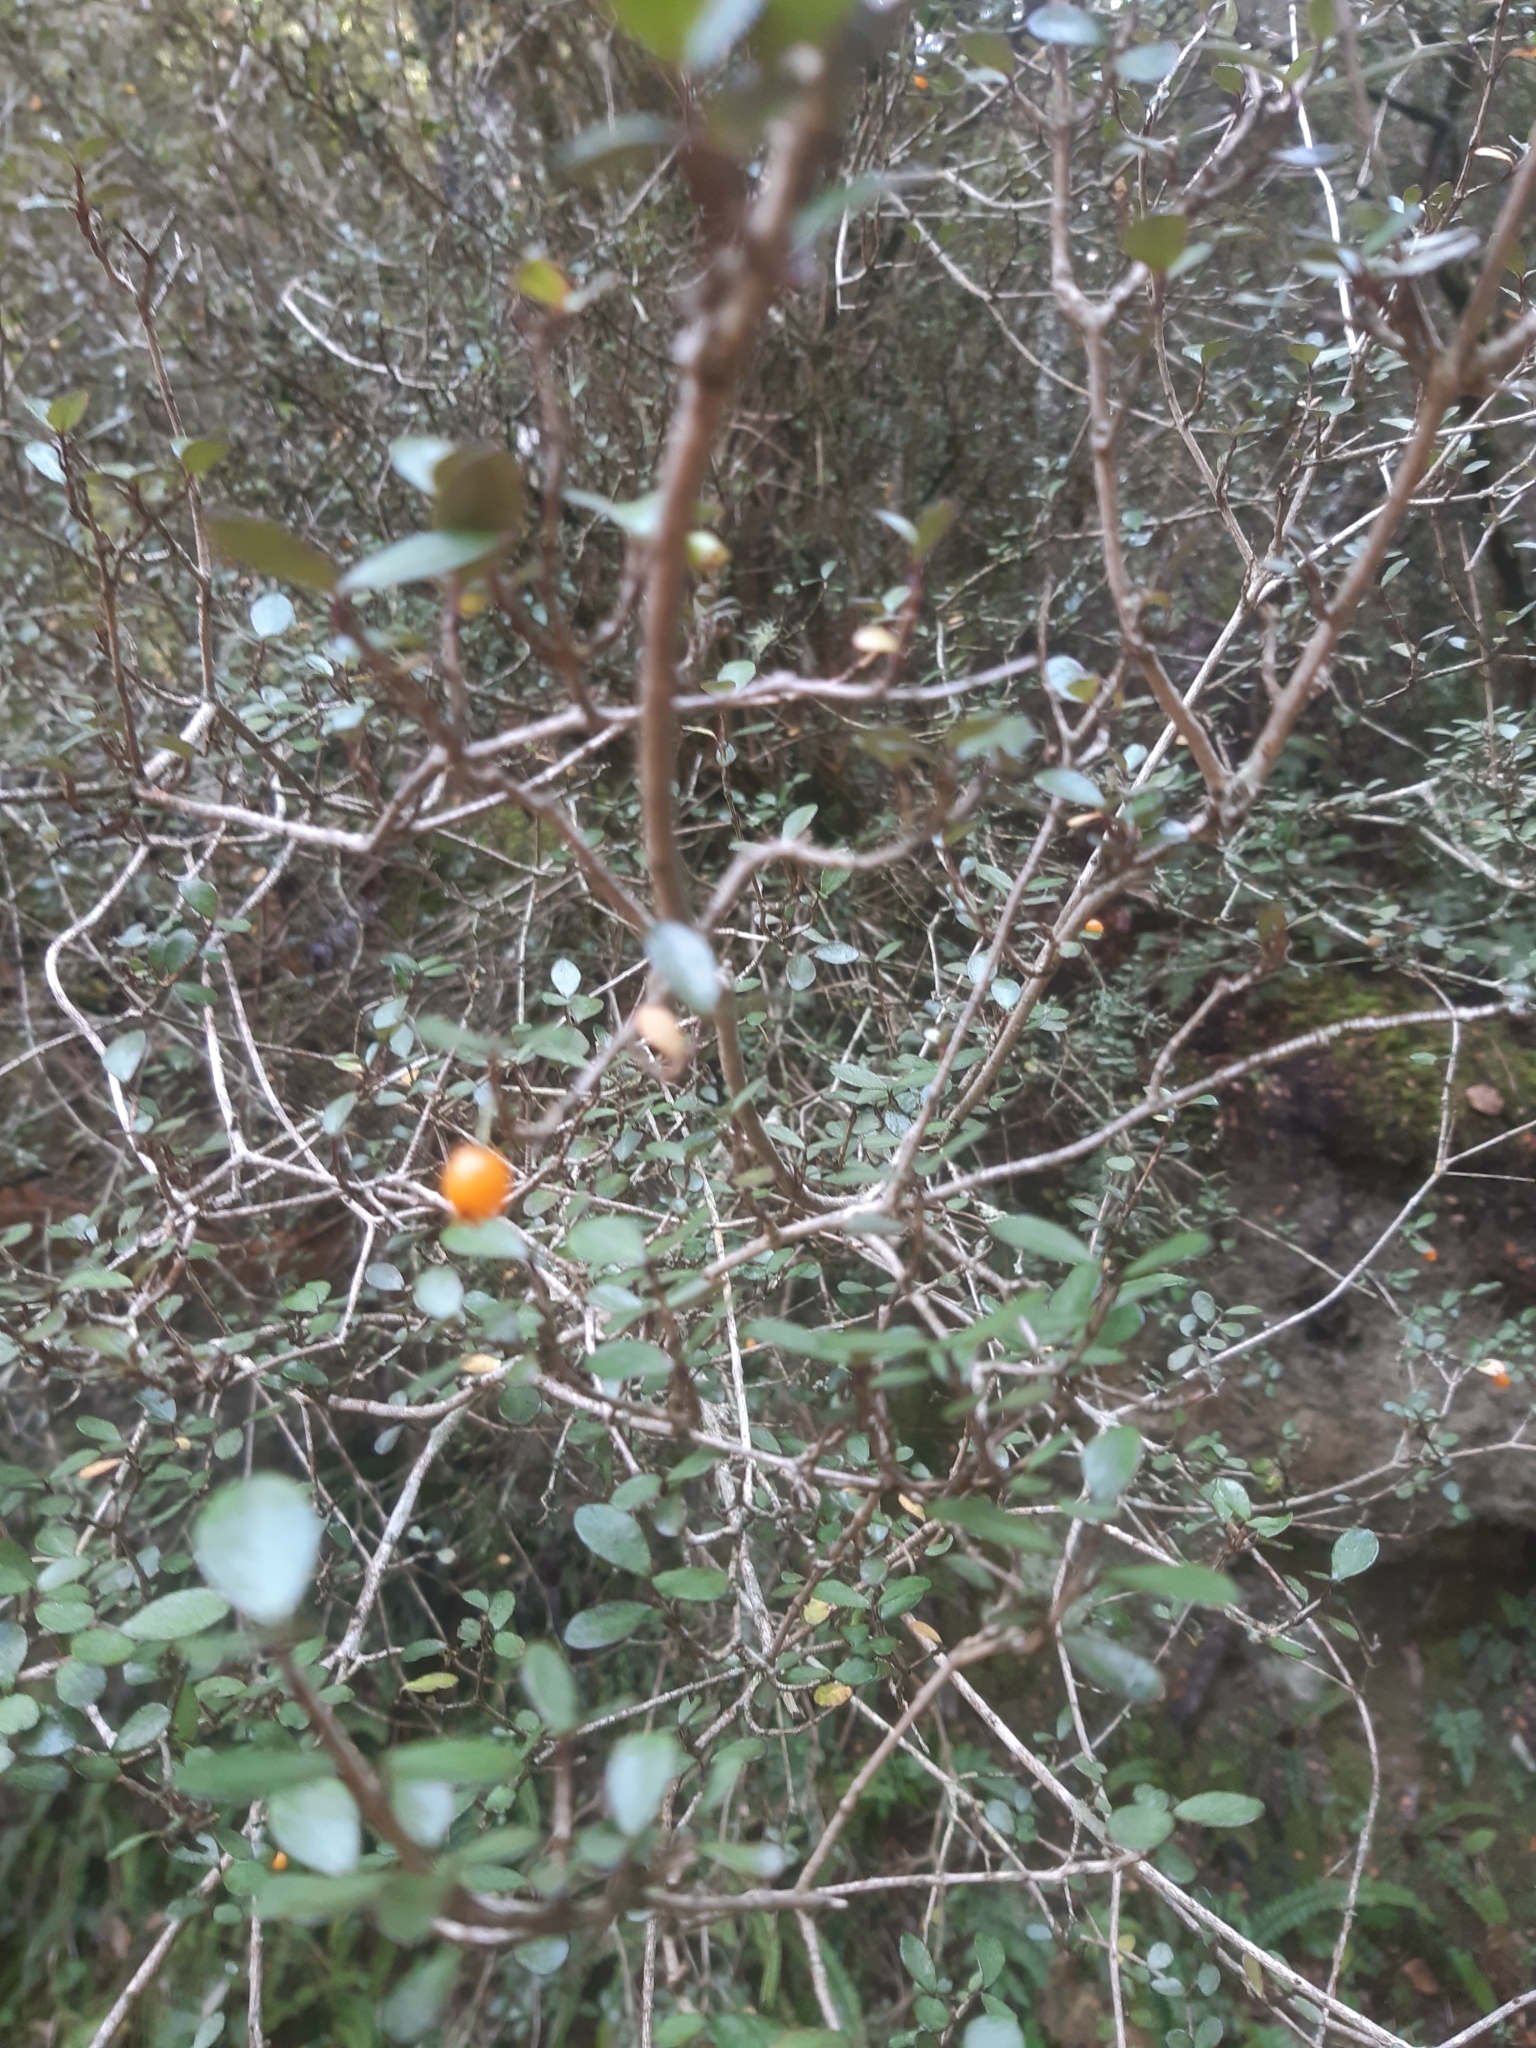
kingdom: Plantae
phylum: Tracheophyta
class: Magnoliopsida
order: Myrtales
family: Myrtaceae
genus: Neomyrtus
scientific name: Neomyrtus pedunculata
